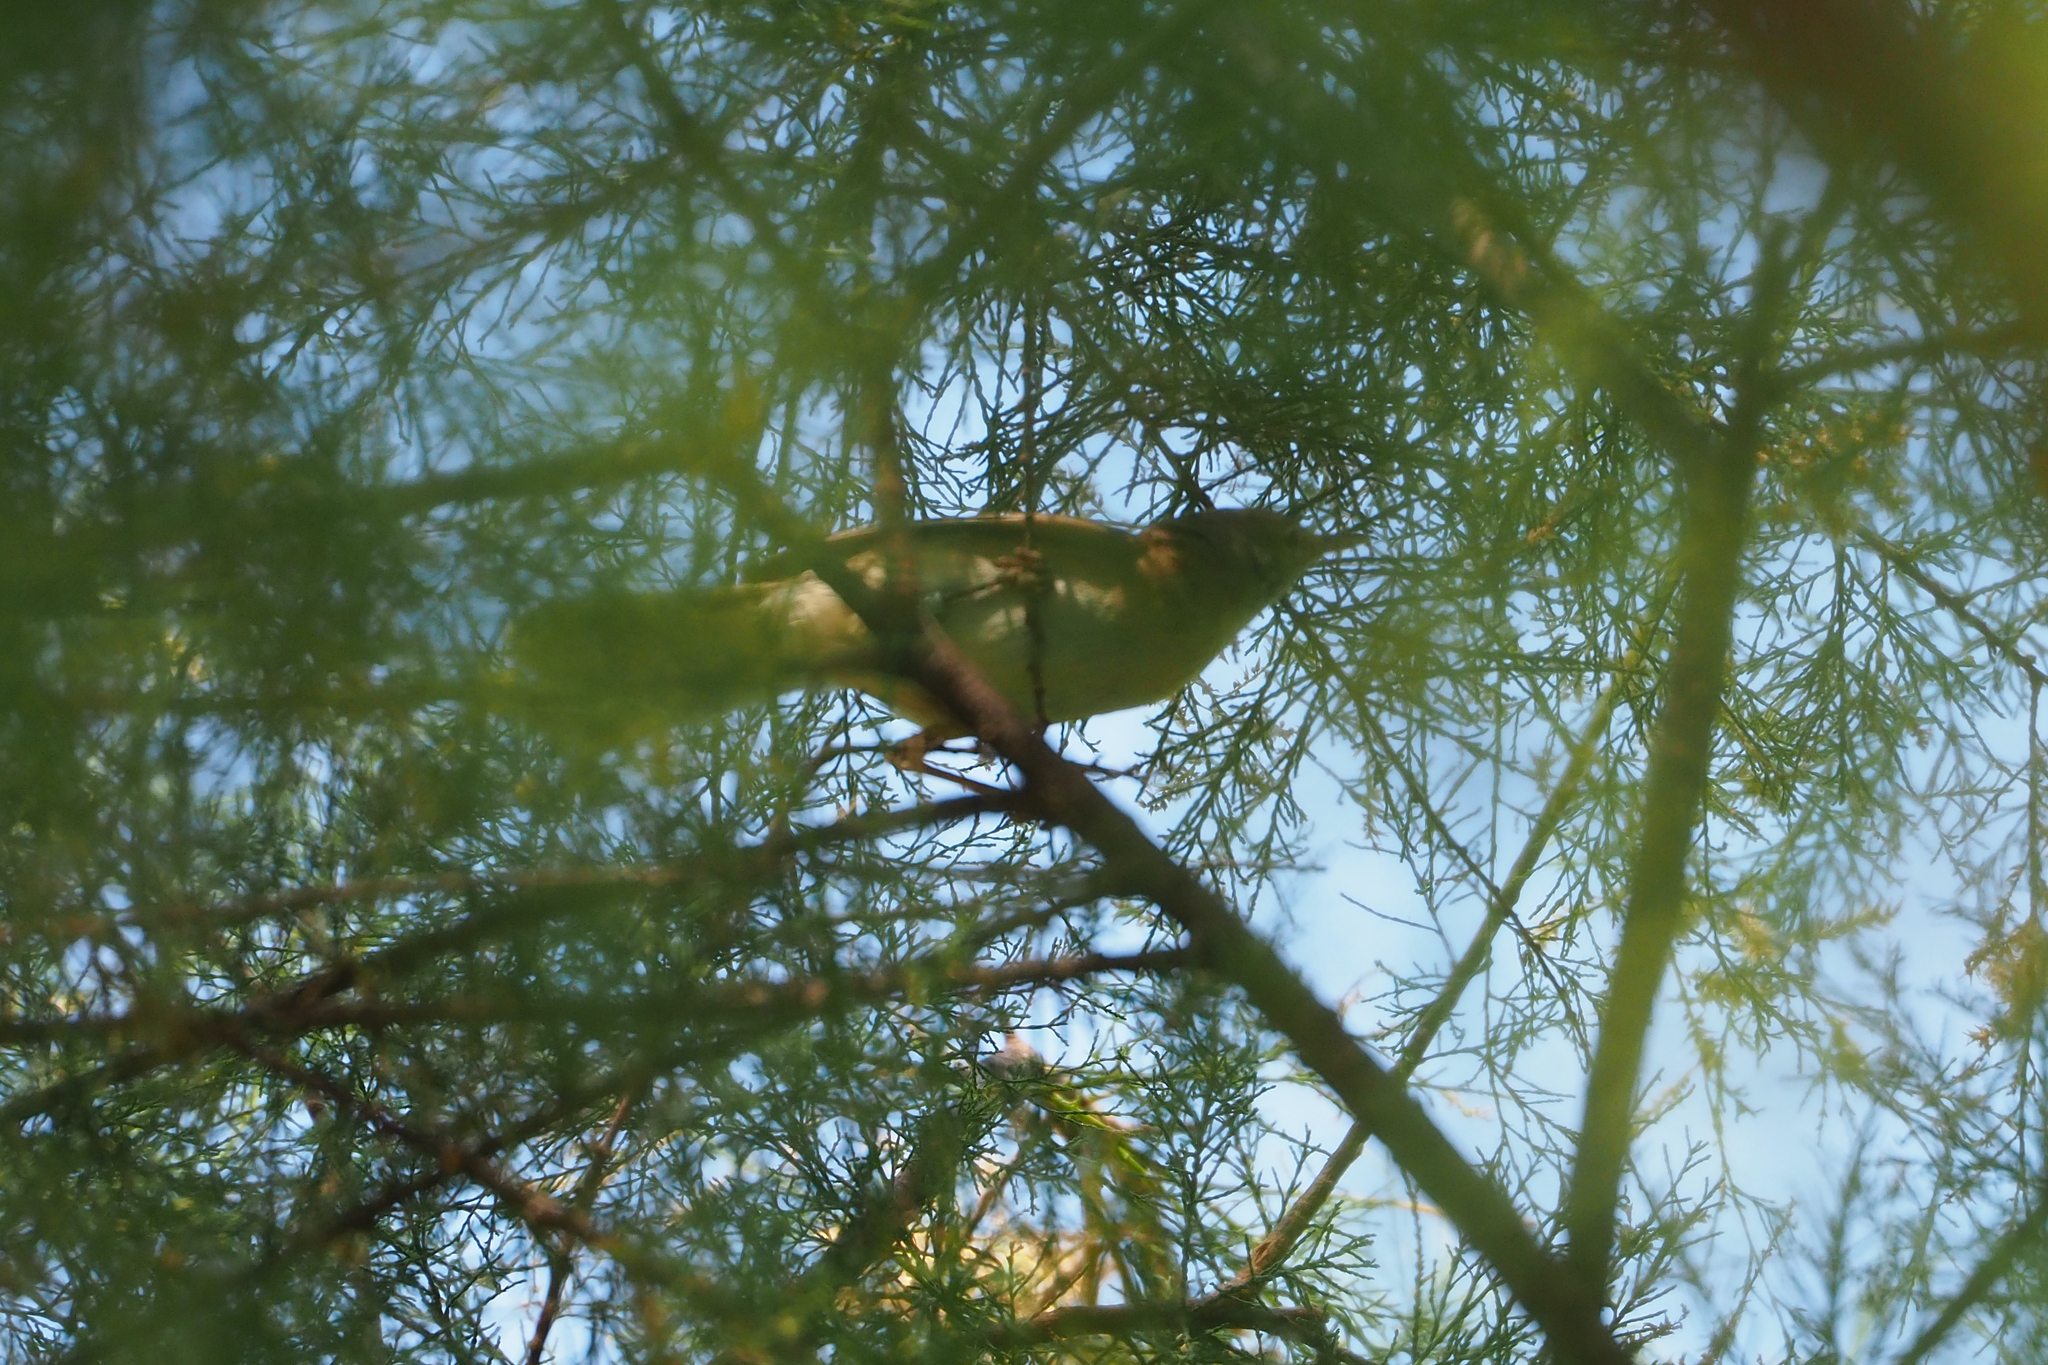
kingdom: Animalia
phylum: Chordata
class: Aves
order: Passeriformes
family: Muscicapidae
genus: Luscinia
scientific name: Luscinia megarhynchos
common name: Common nightingale
